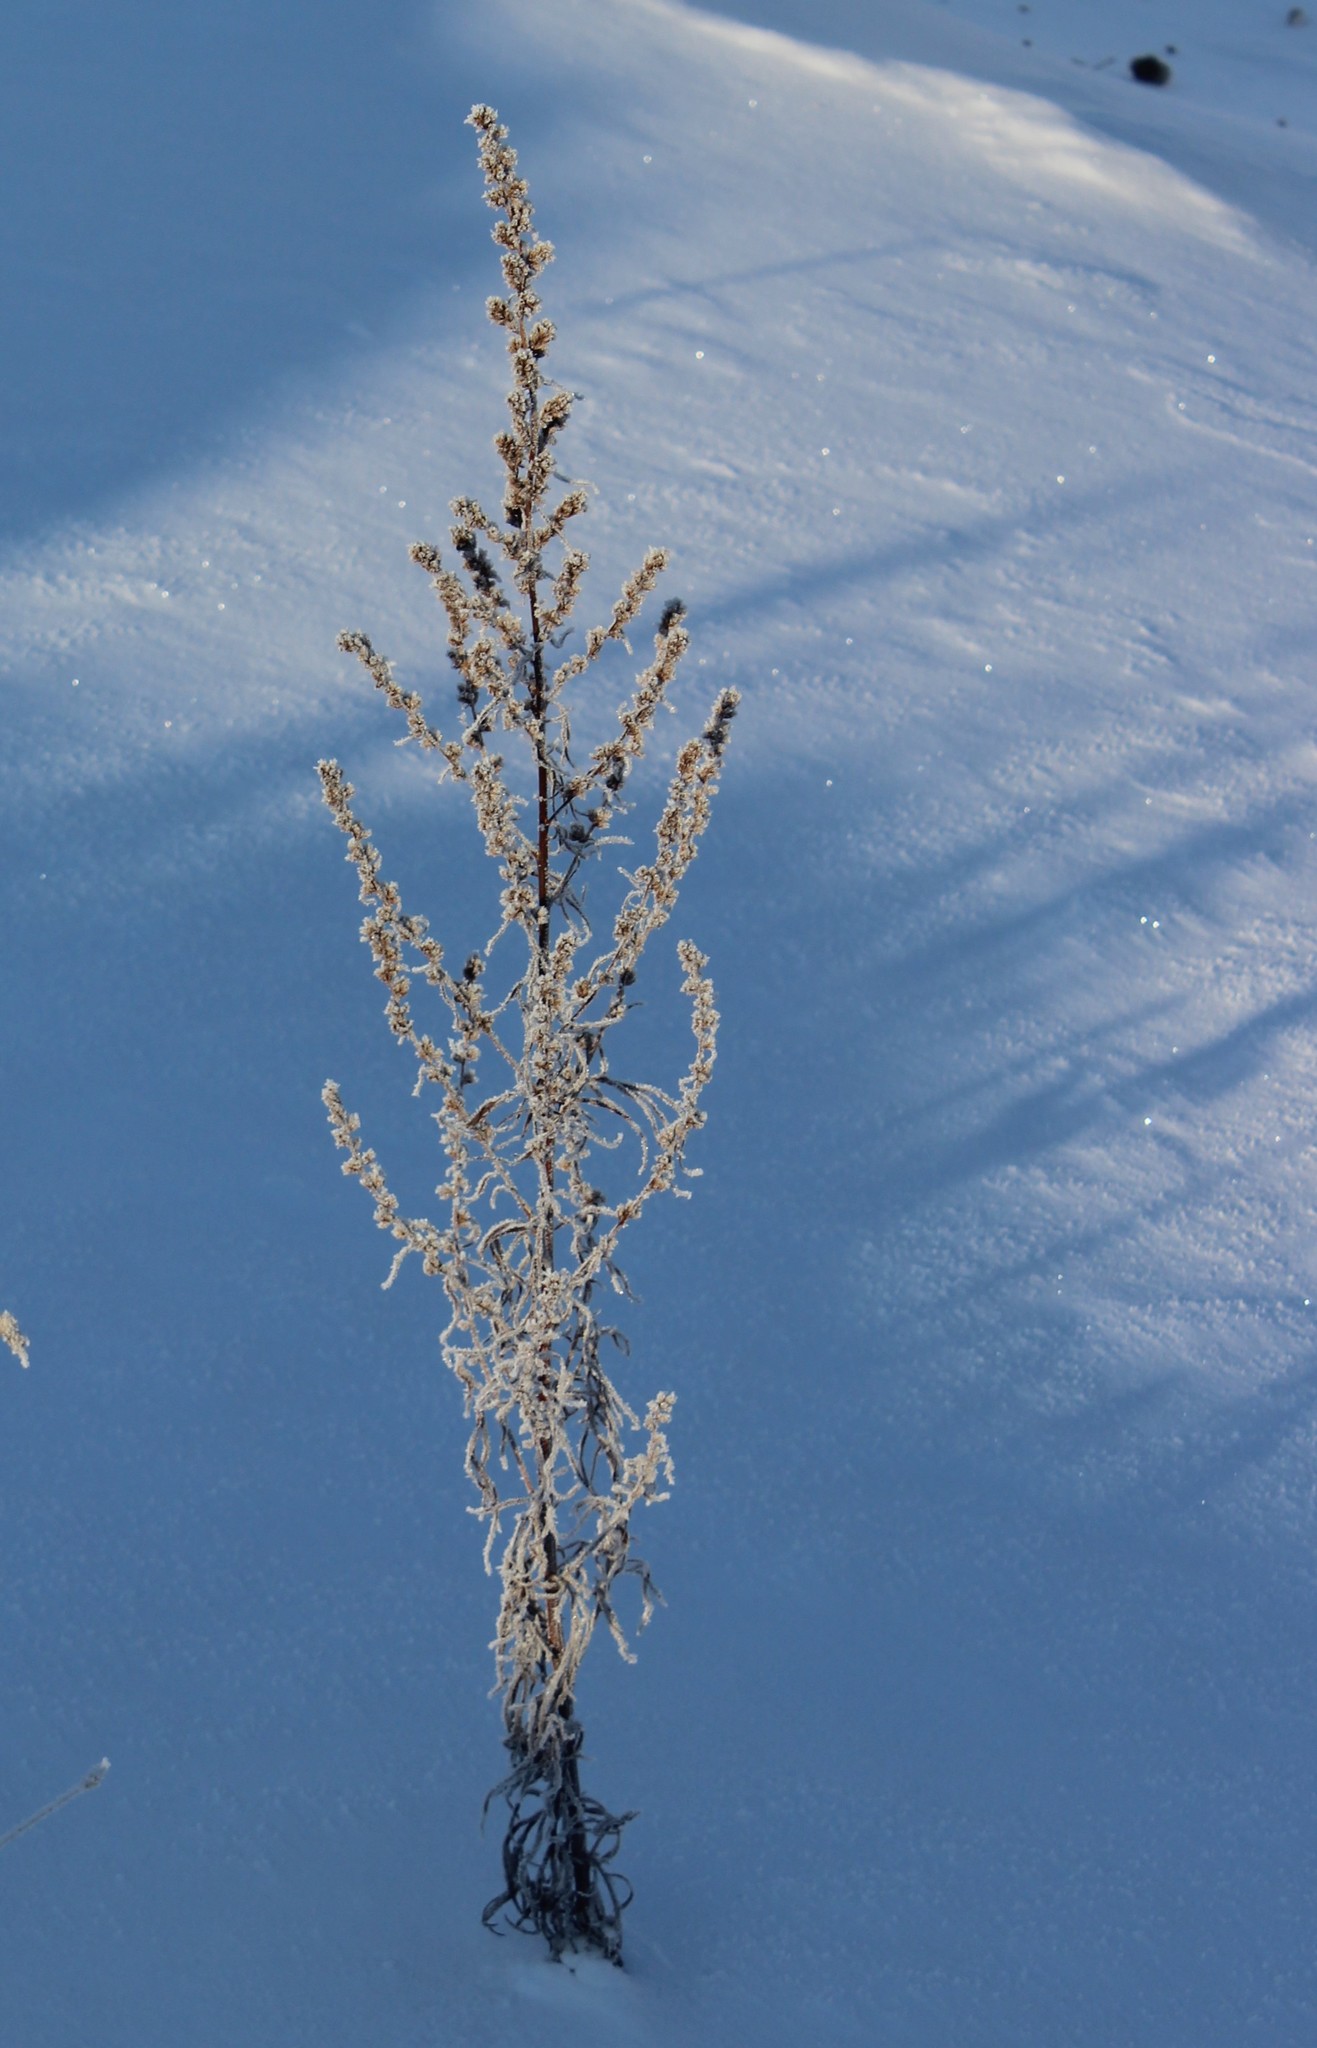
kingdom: Plantae
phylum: Tracheophyta
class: Magnoliopsida
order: Asterales
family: Asteraceae
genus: Artemisia
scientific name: Artemisia vulgaris
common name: Mugwort
